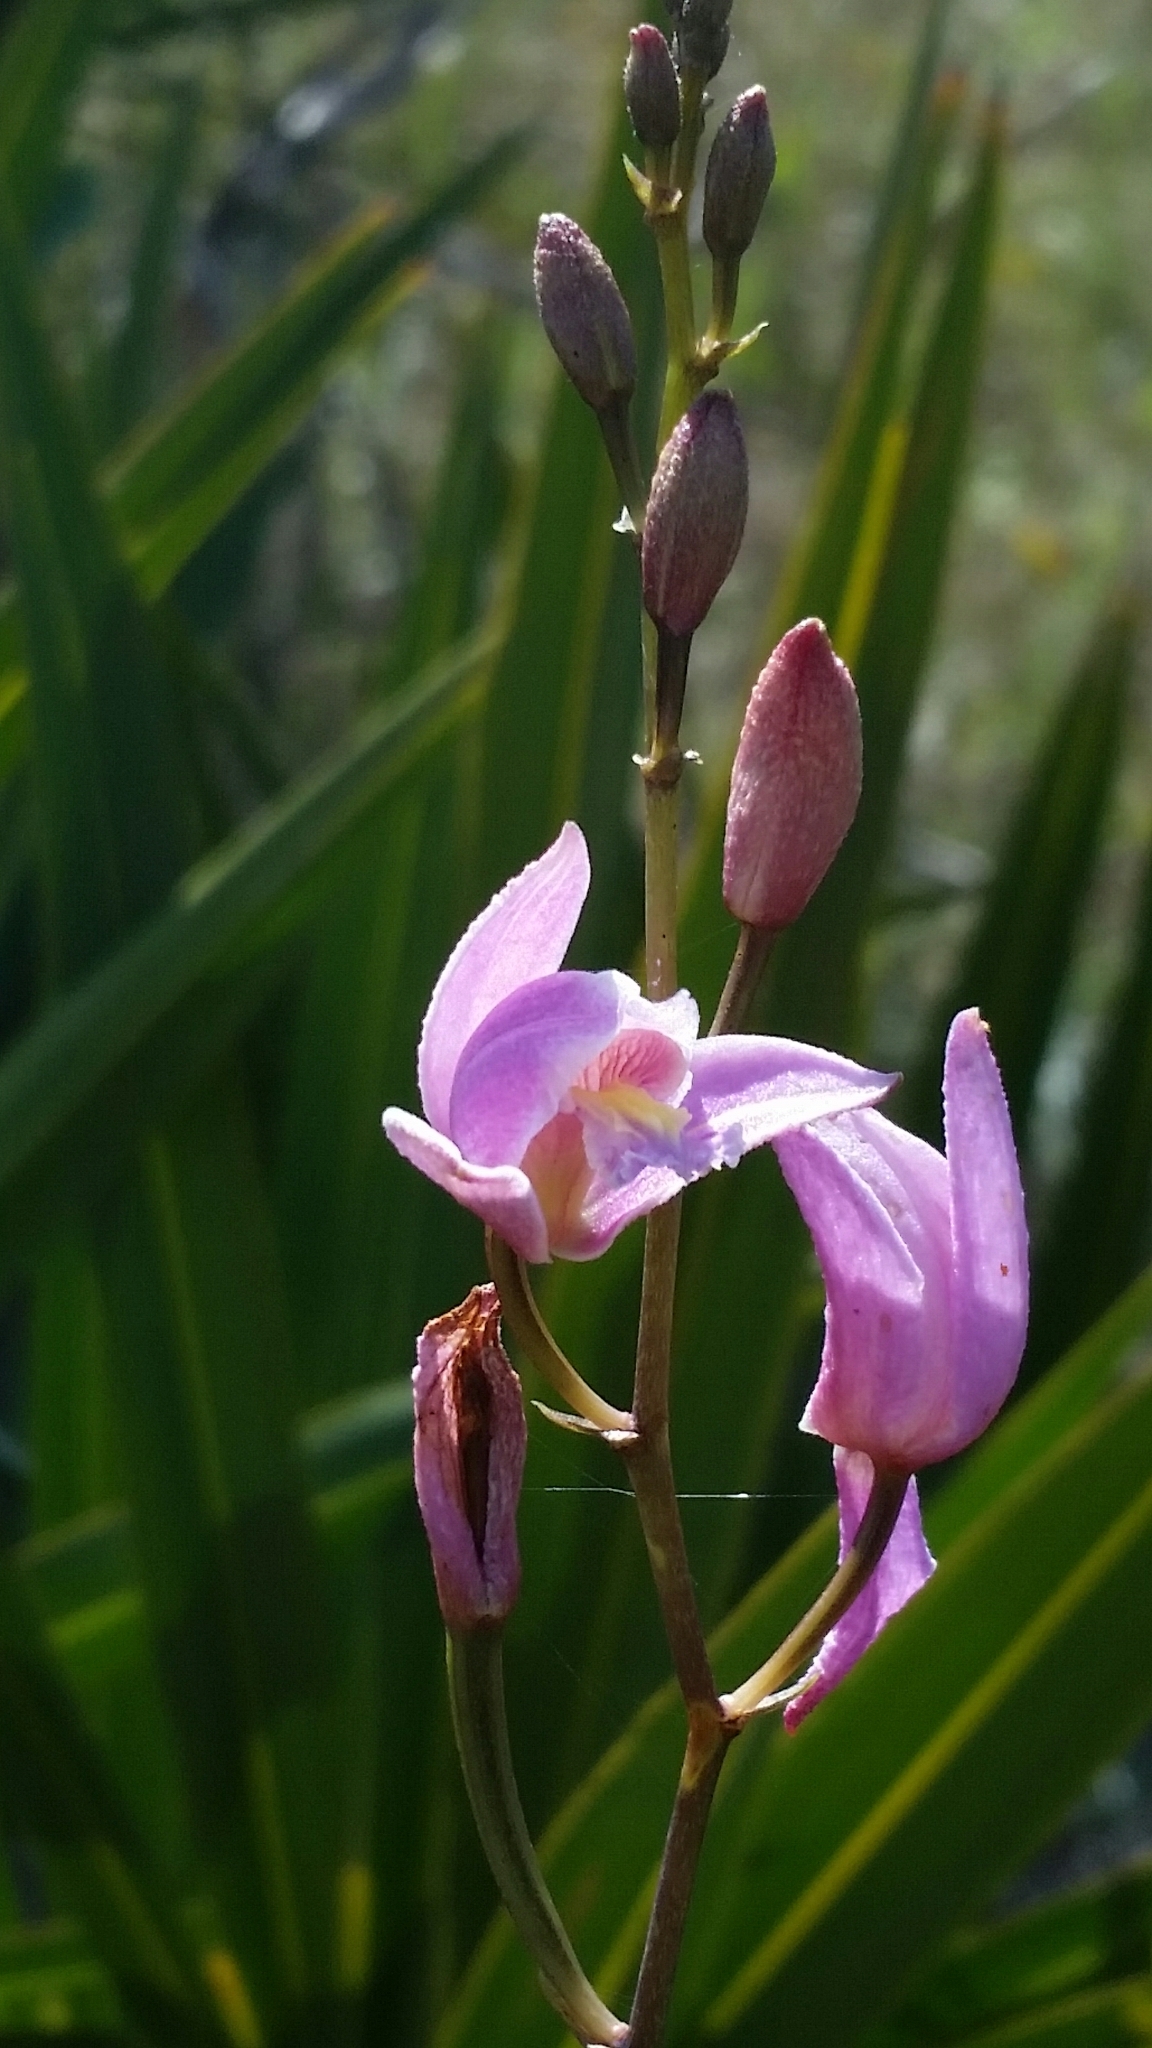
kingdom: Plantae
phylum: Tracheophyta
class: Liliopsida
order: Asparagales
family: Orchidaceae
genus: Bletia
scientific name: Bletia purpurea
